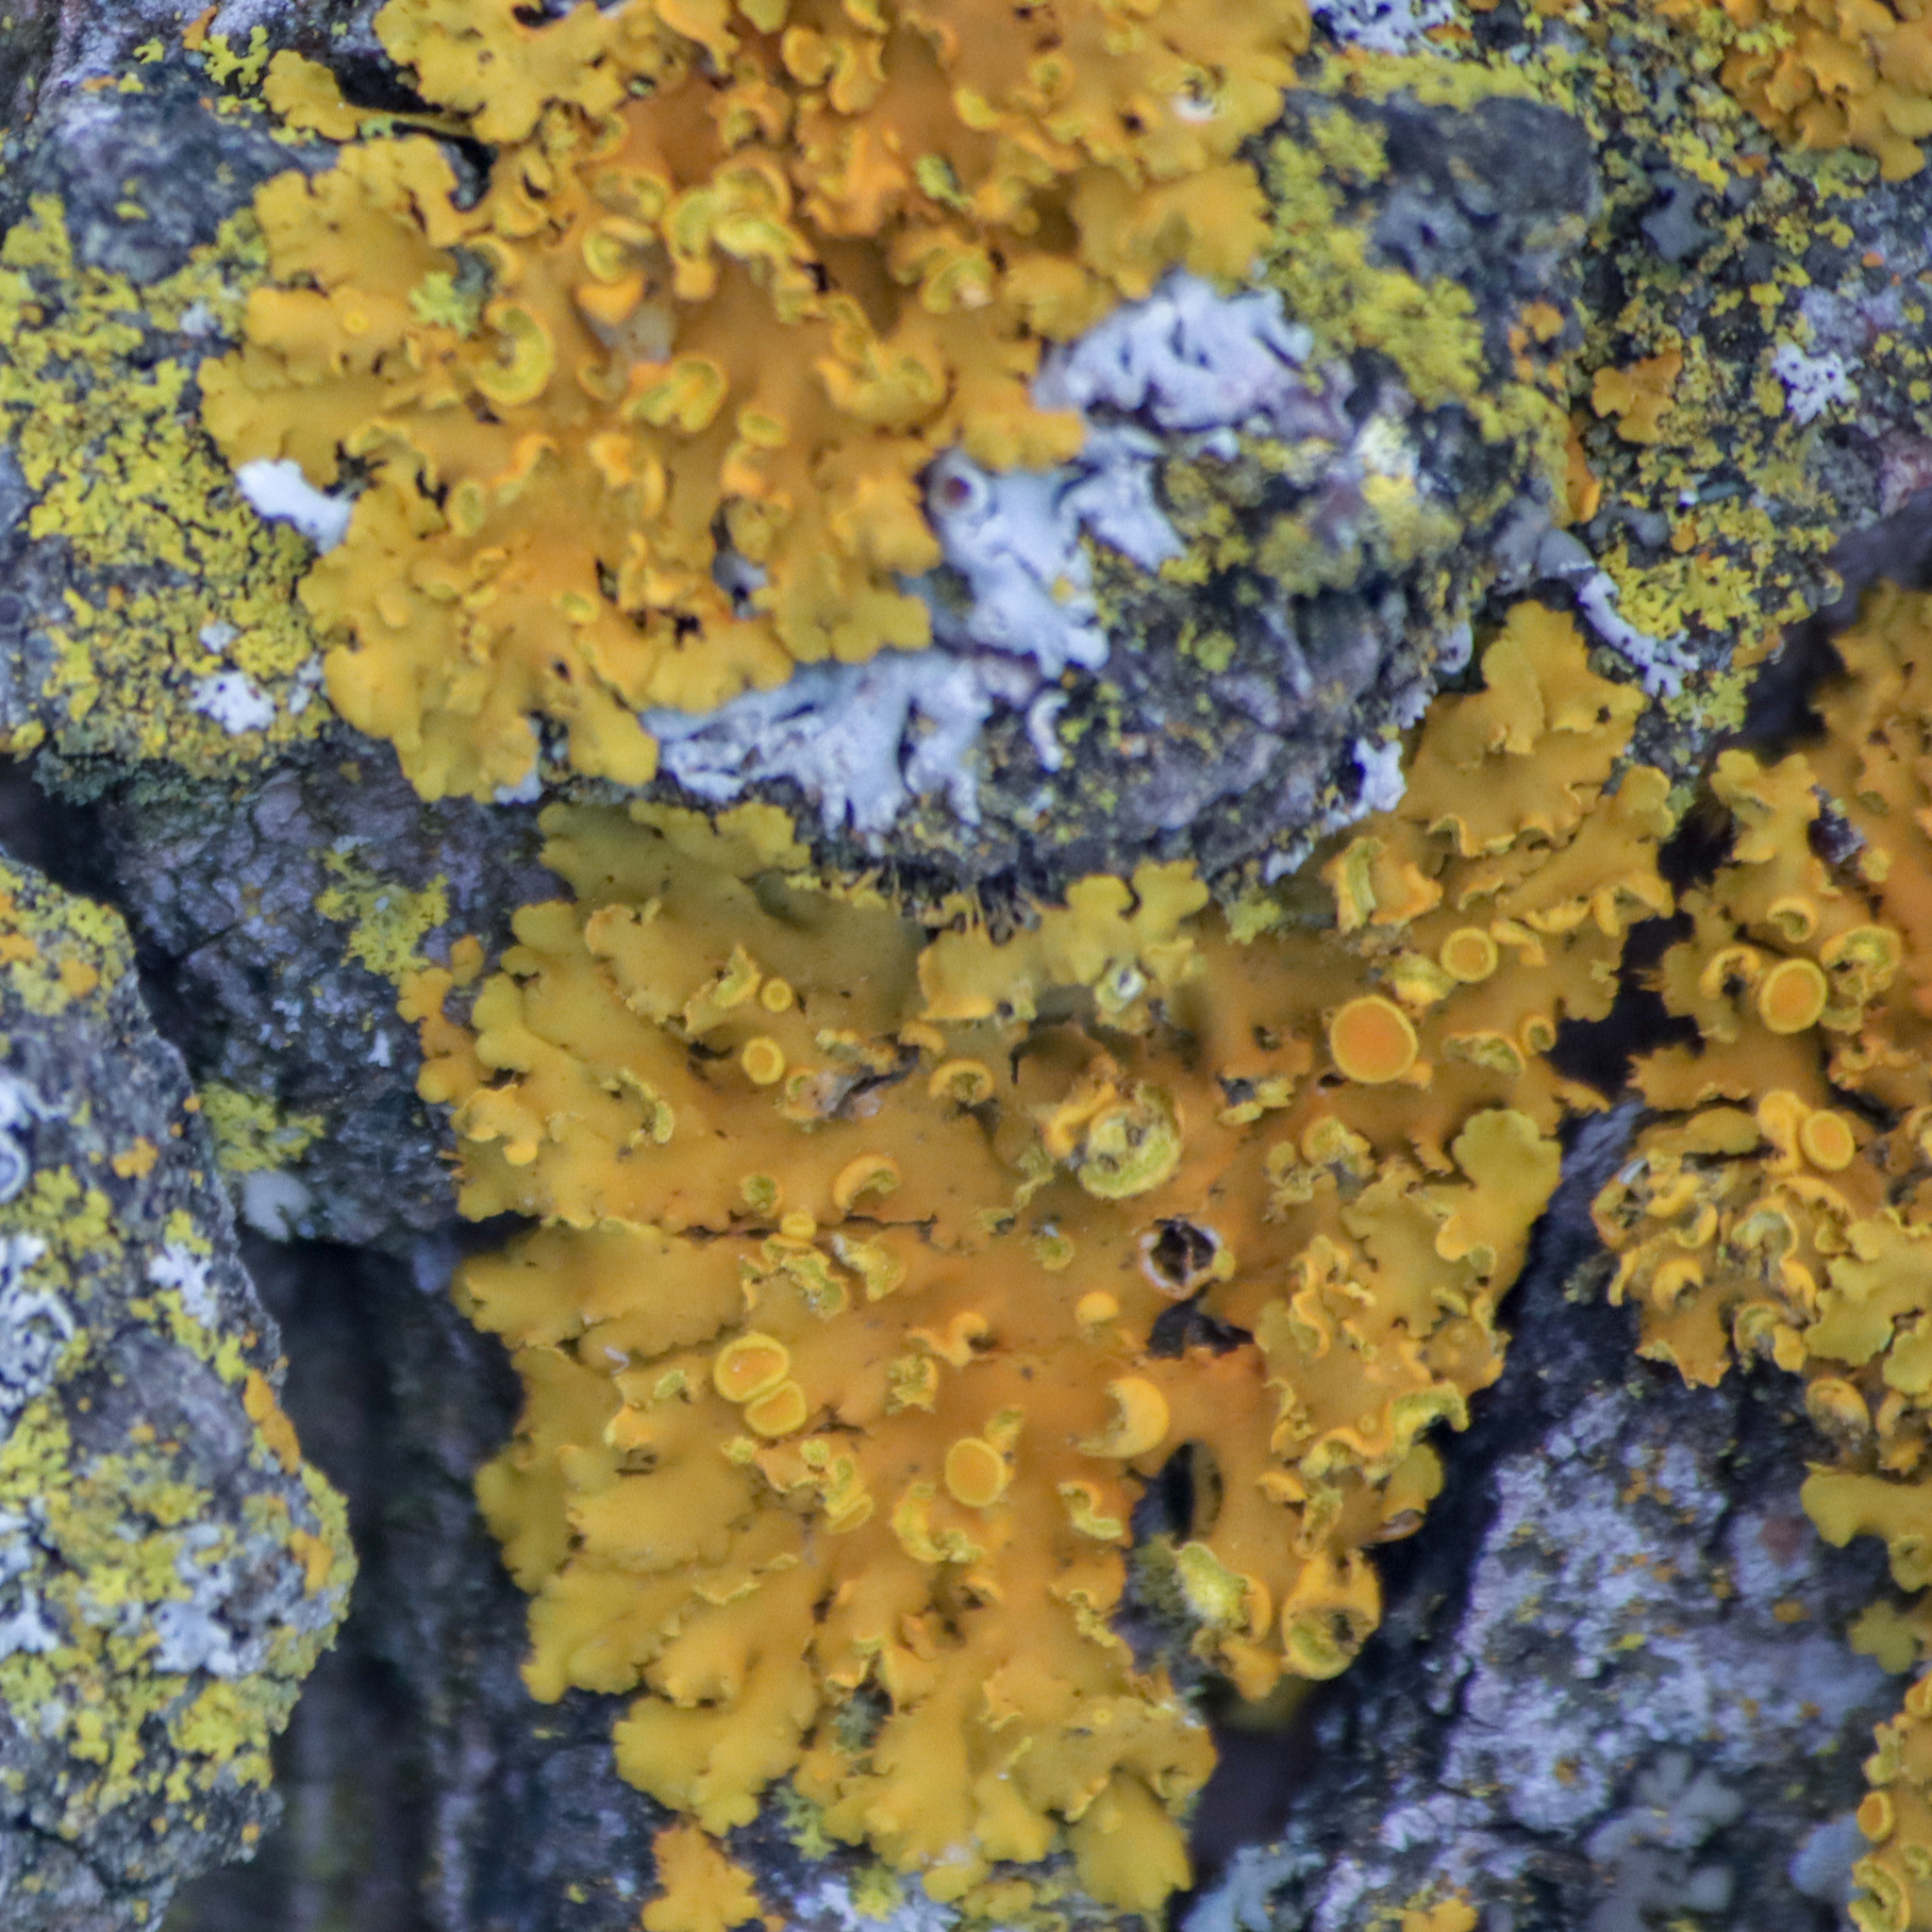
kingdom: Fungi
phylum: Ascomycota
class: Lecanoromycetes
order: Teloschistales
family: Teloschistaceae
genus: Oxneria
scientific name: Oxneria fallax
